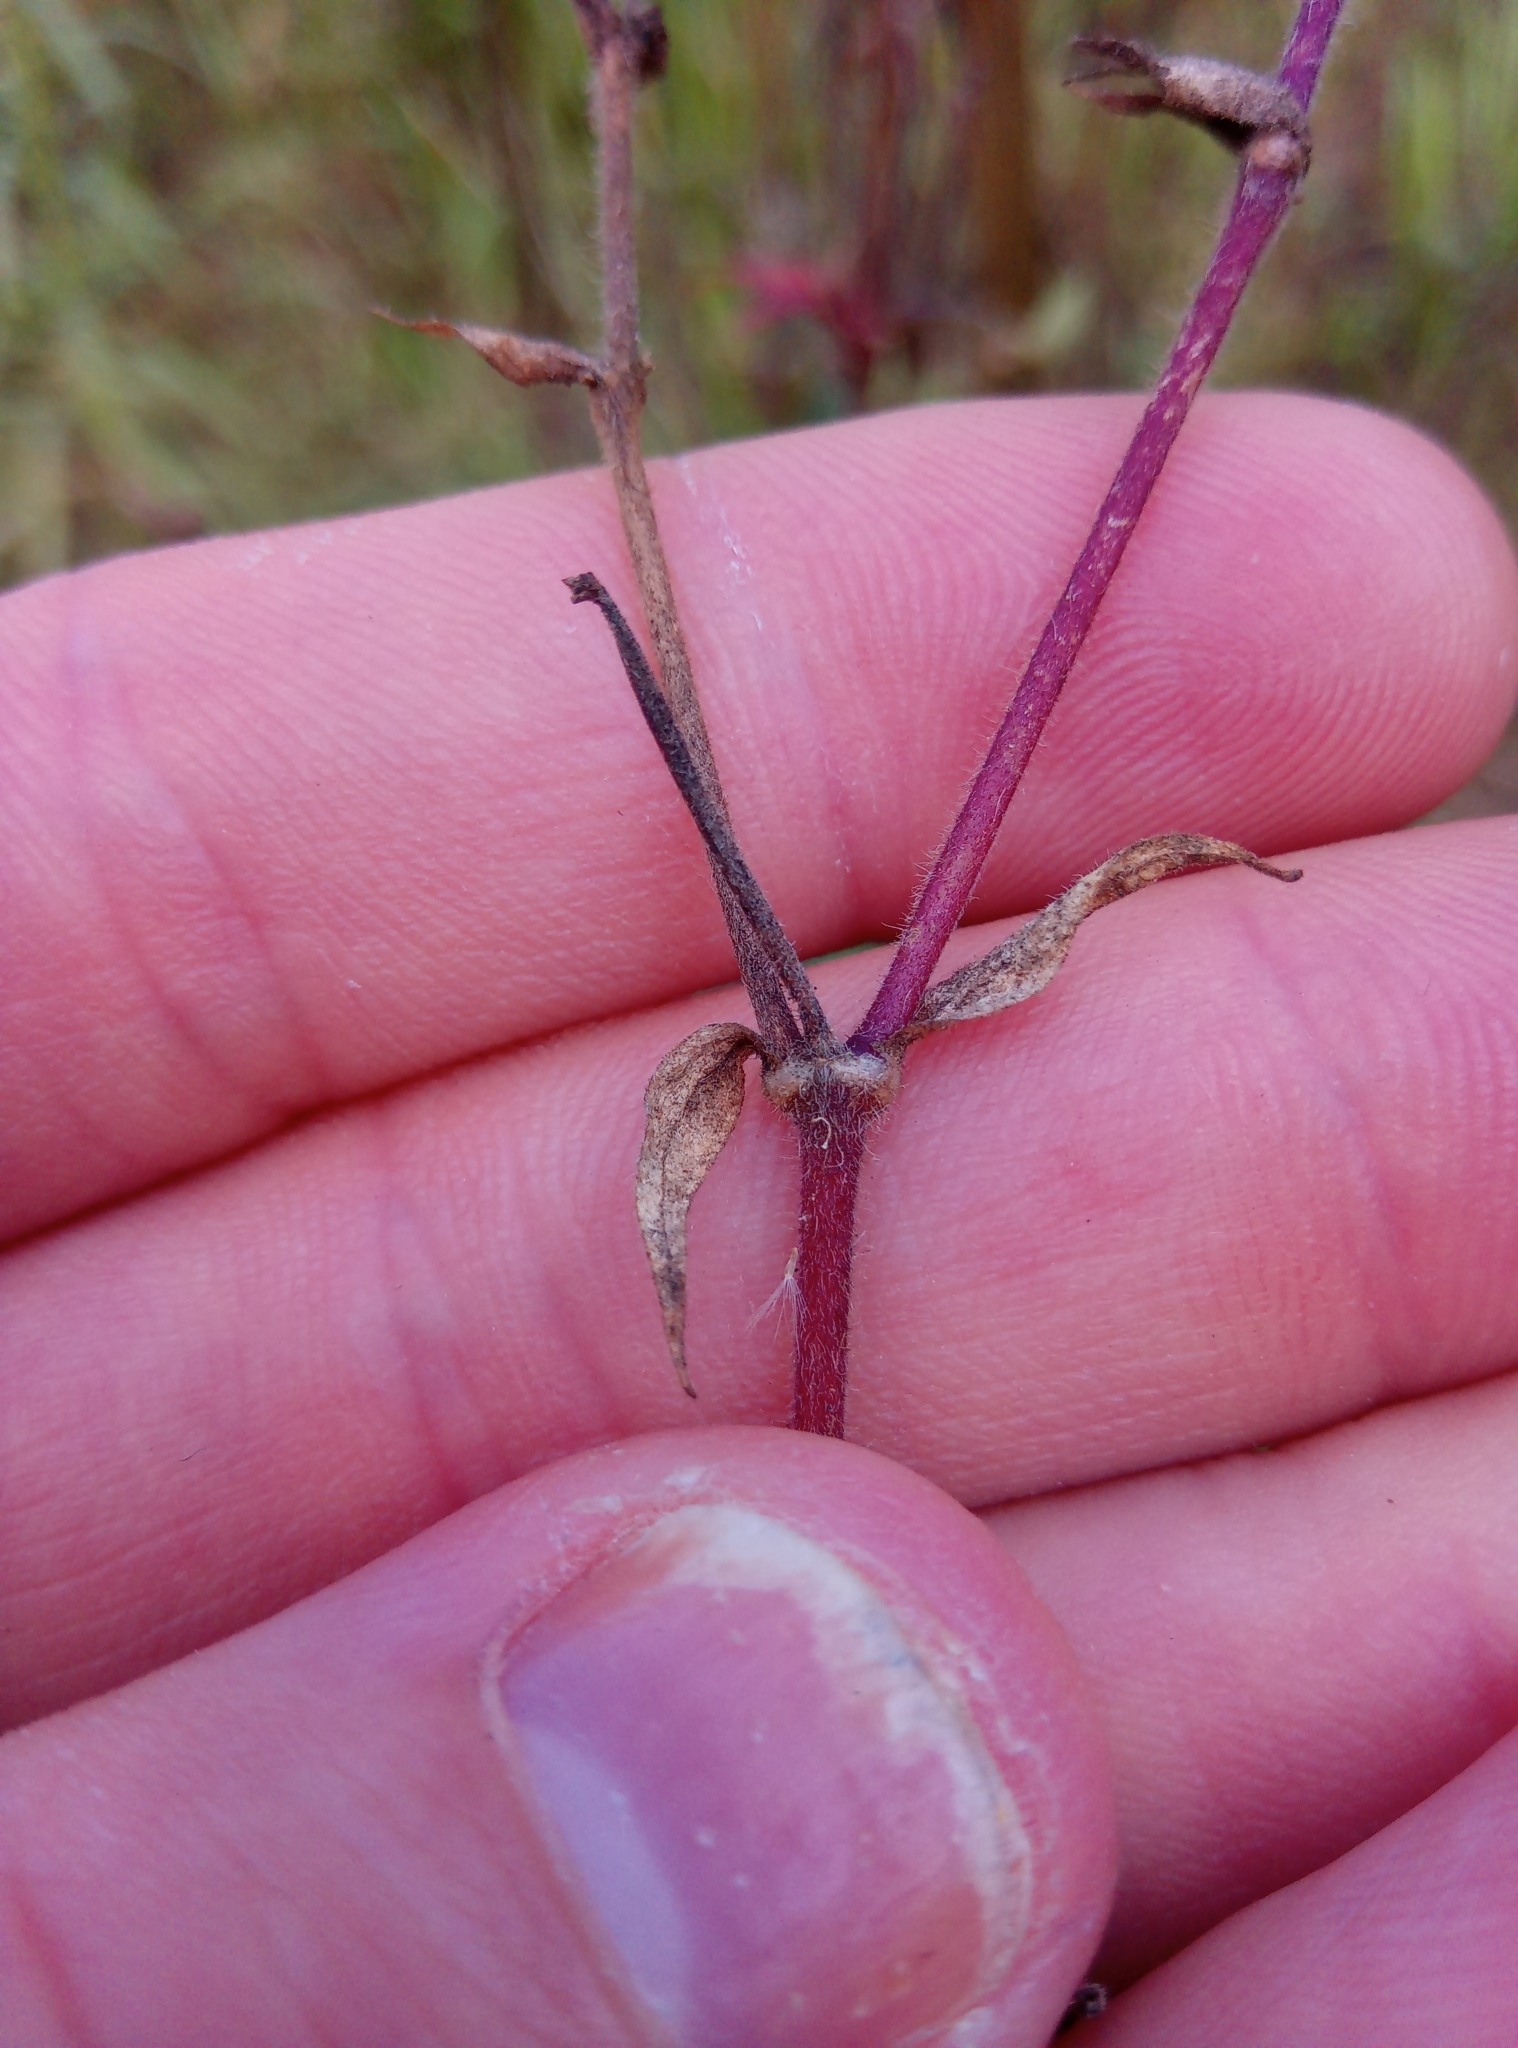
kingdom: Plantae
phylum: Tracheophyta
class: Magnoliopsida
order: Caryophyllales
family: Caryophyllaceae
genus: Silene
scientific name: Silene hampeana
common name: Catchfly
